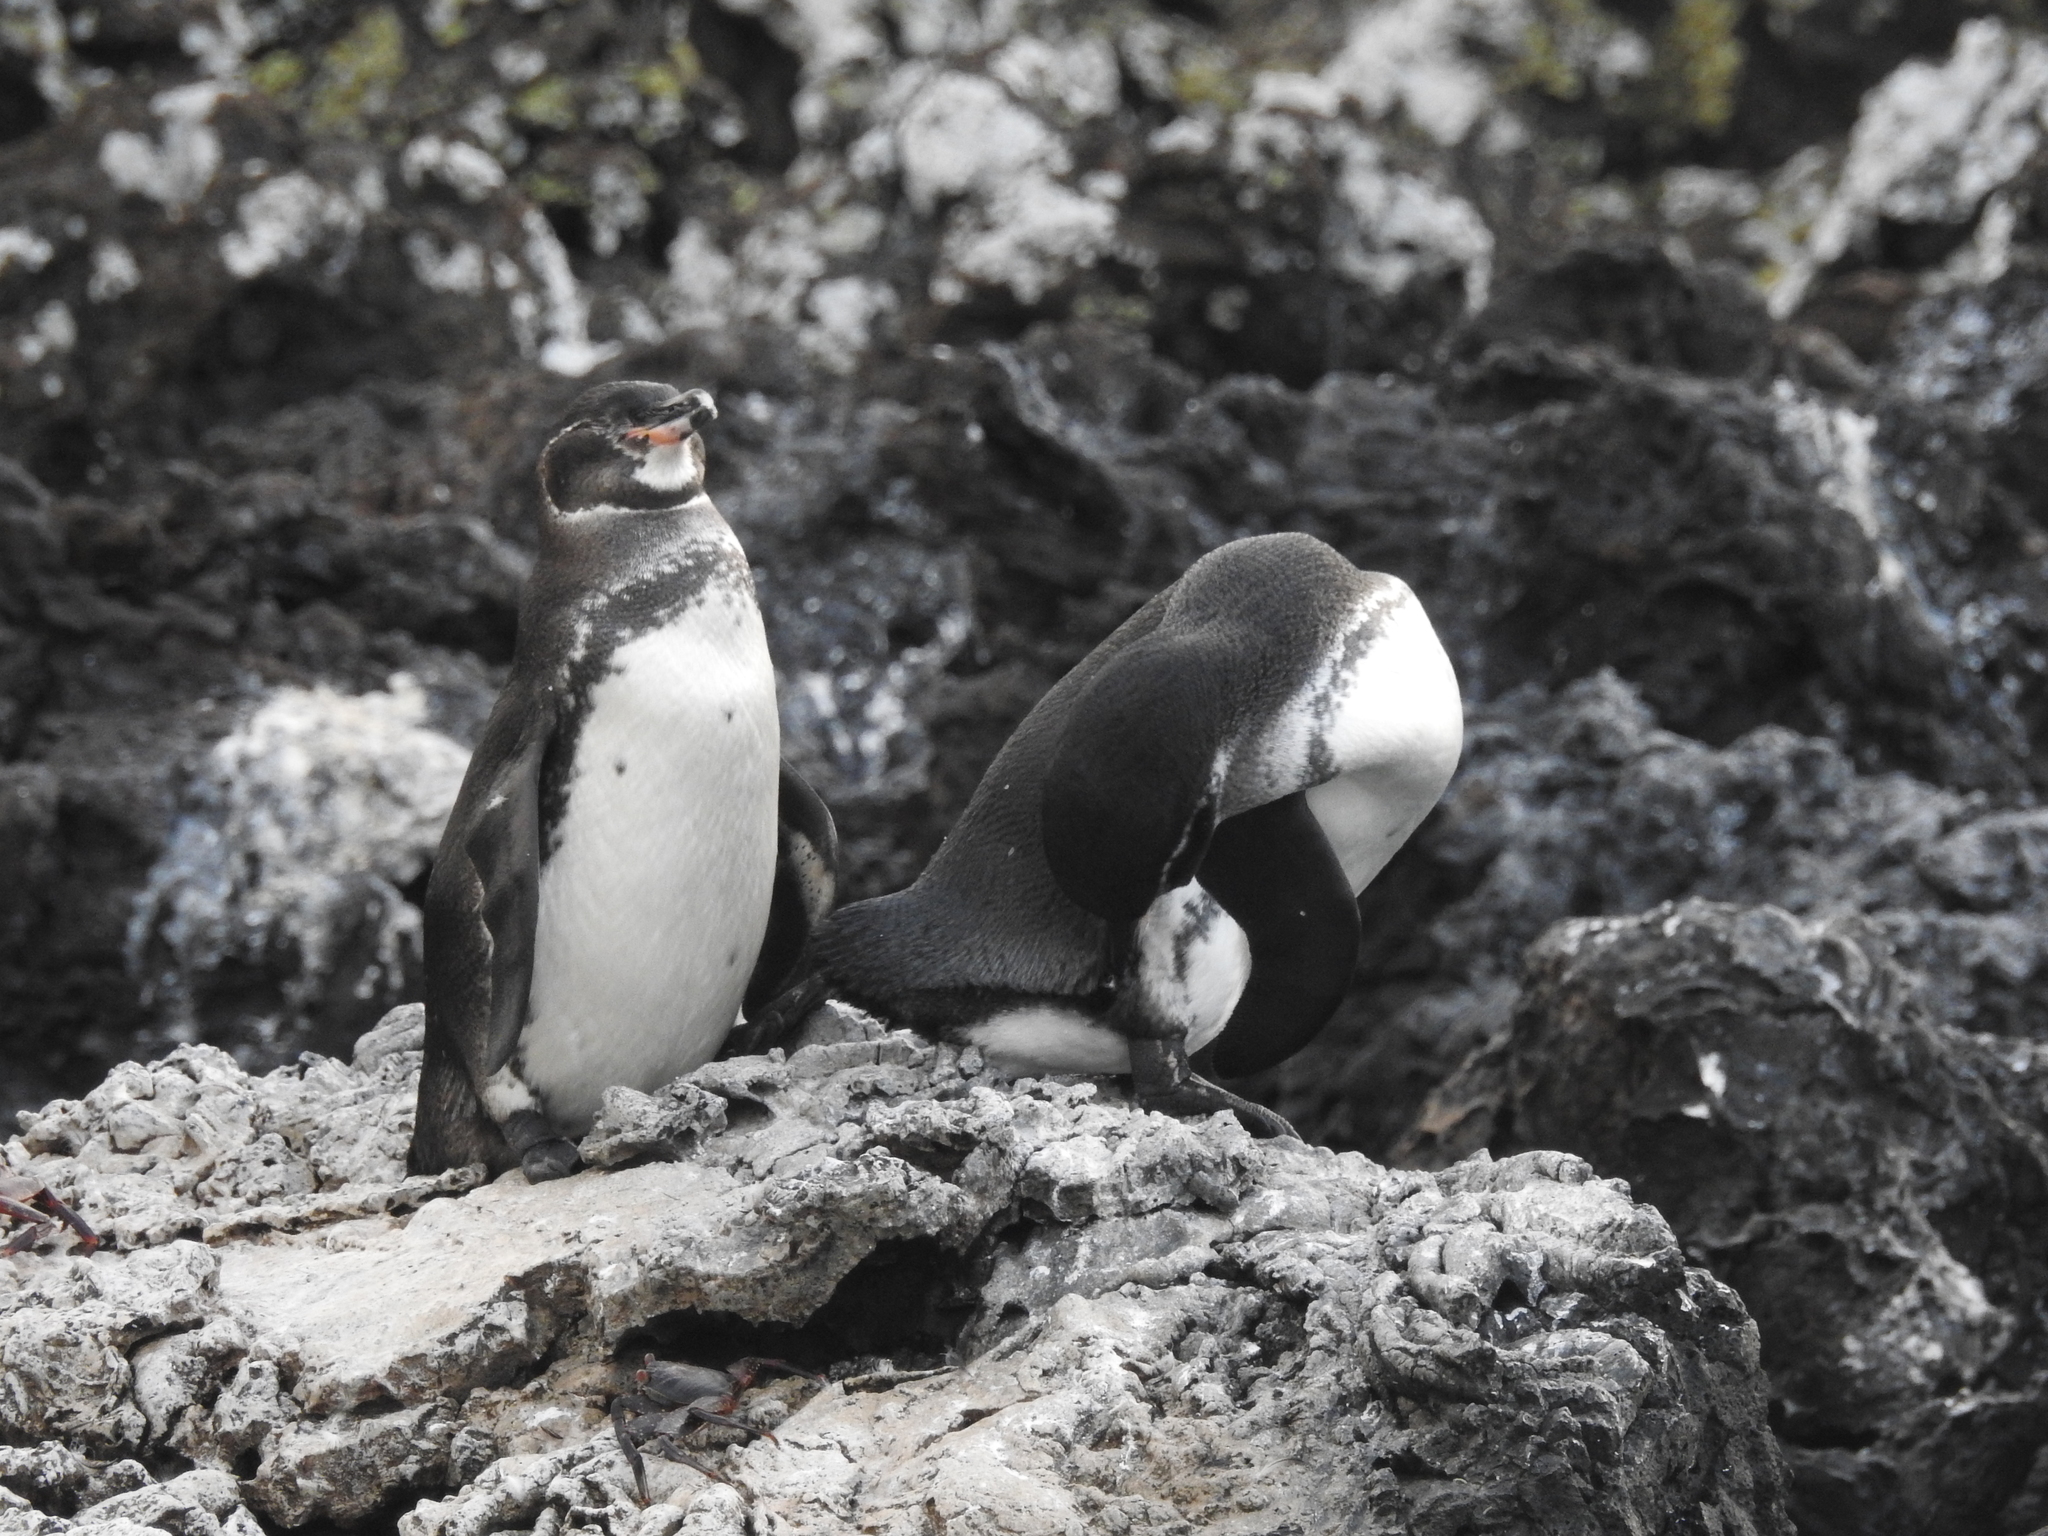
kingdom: Animalia
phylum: Chordata
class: Aves
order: Sphenisciformes
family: Spheniscidae
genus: Spheniscus
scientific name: Spheniscus mendiculus
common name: Galapagos penguin
